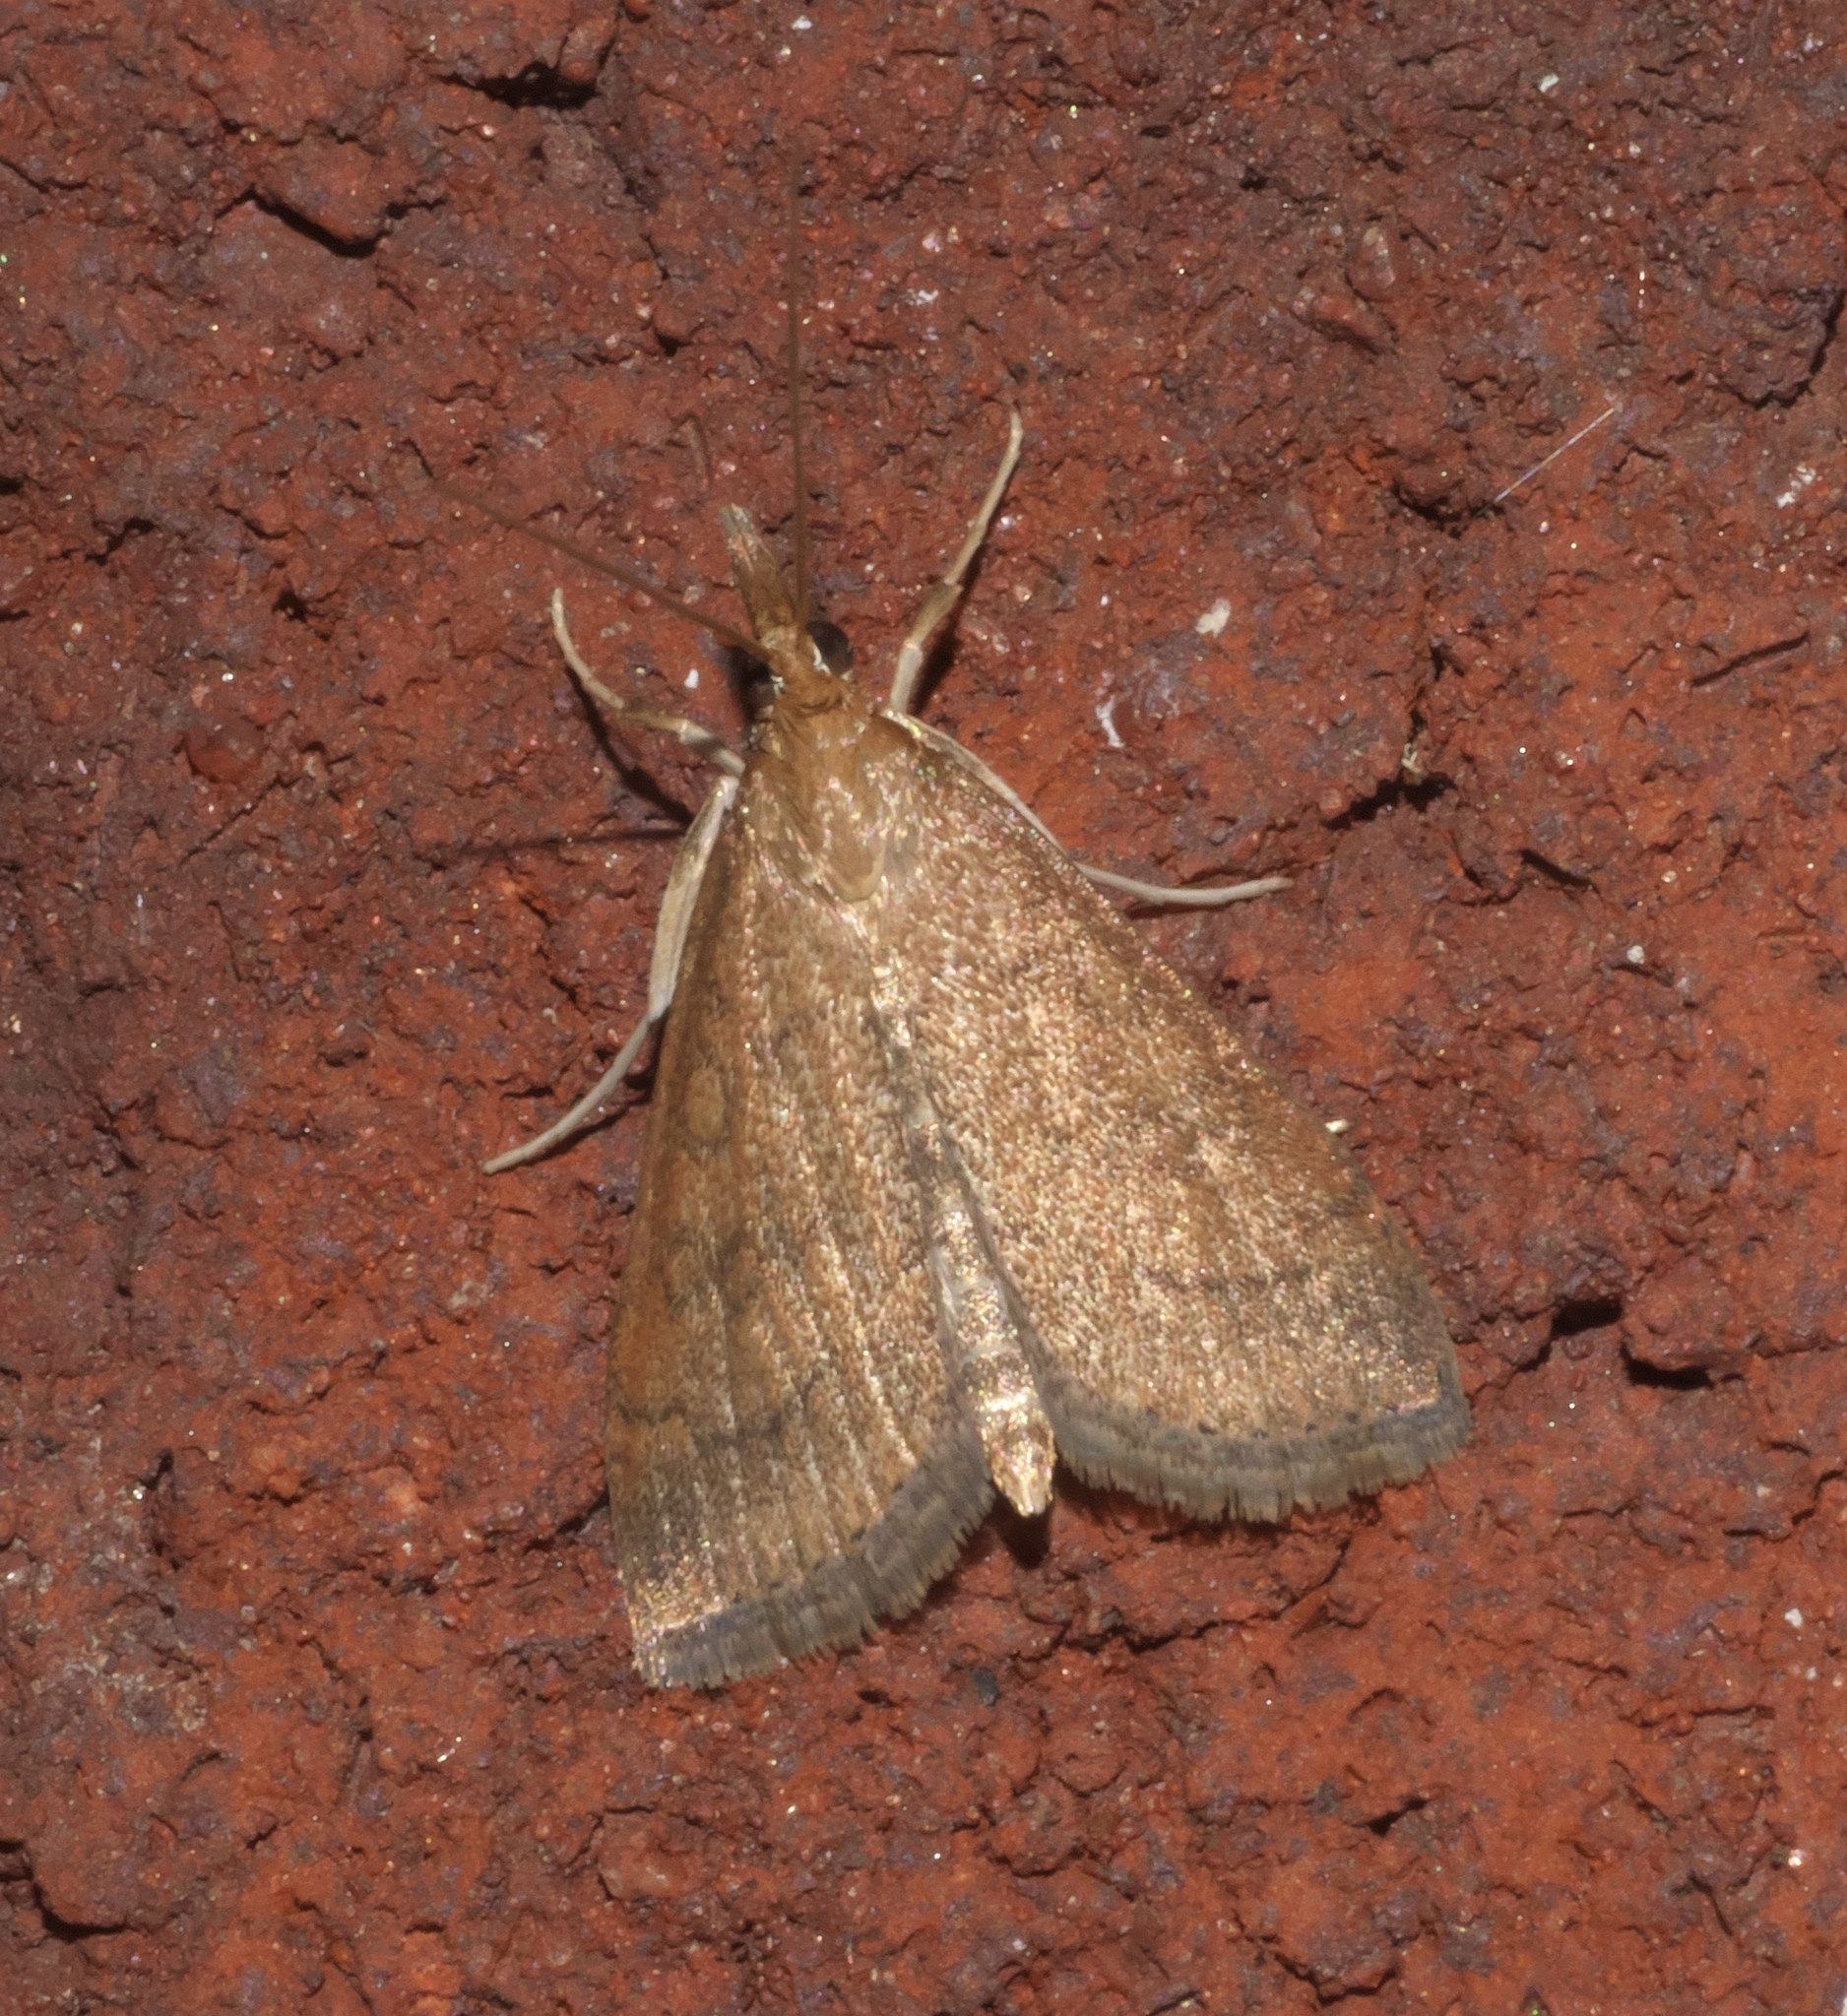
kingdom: Animalia
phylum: Arthropoda
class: Insecta
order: Lepidoptera
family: Crambidae
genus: Udea
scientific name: Udea rubigalis
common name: Celery leaftier moth
